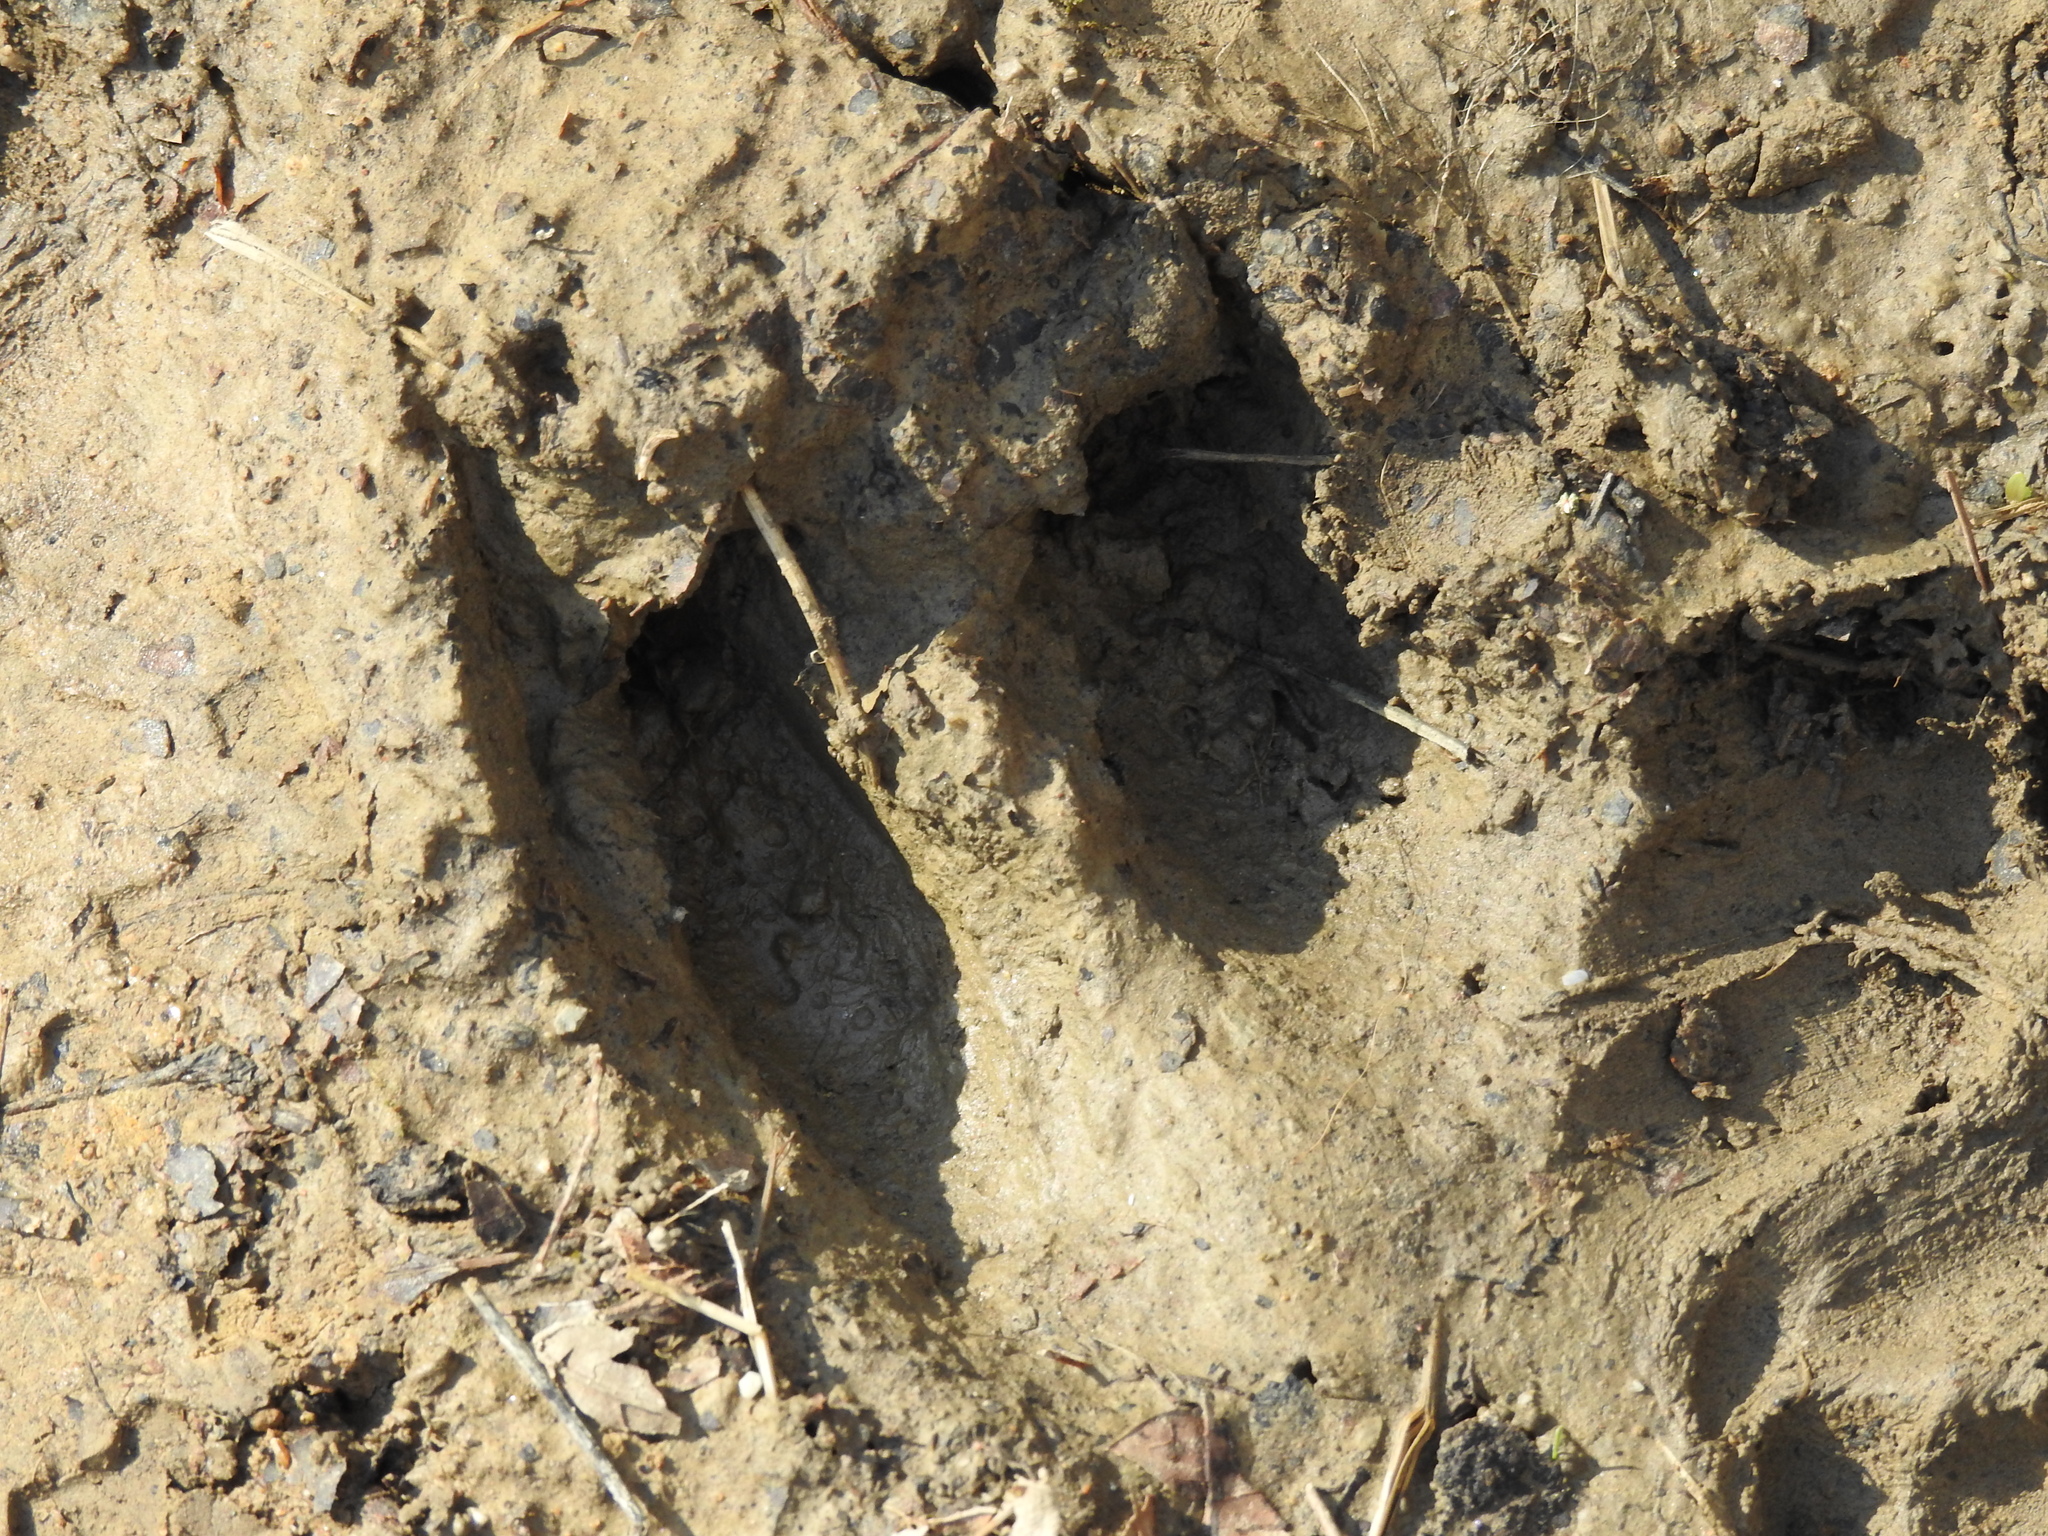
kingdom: Animalia
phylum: Chordata
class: Mammalia
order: Artiodactyla
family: Cervidae
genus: Odocoileus
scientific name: Odocoileus virginianus
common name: White-tailed deer
